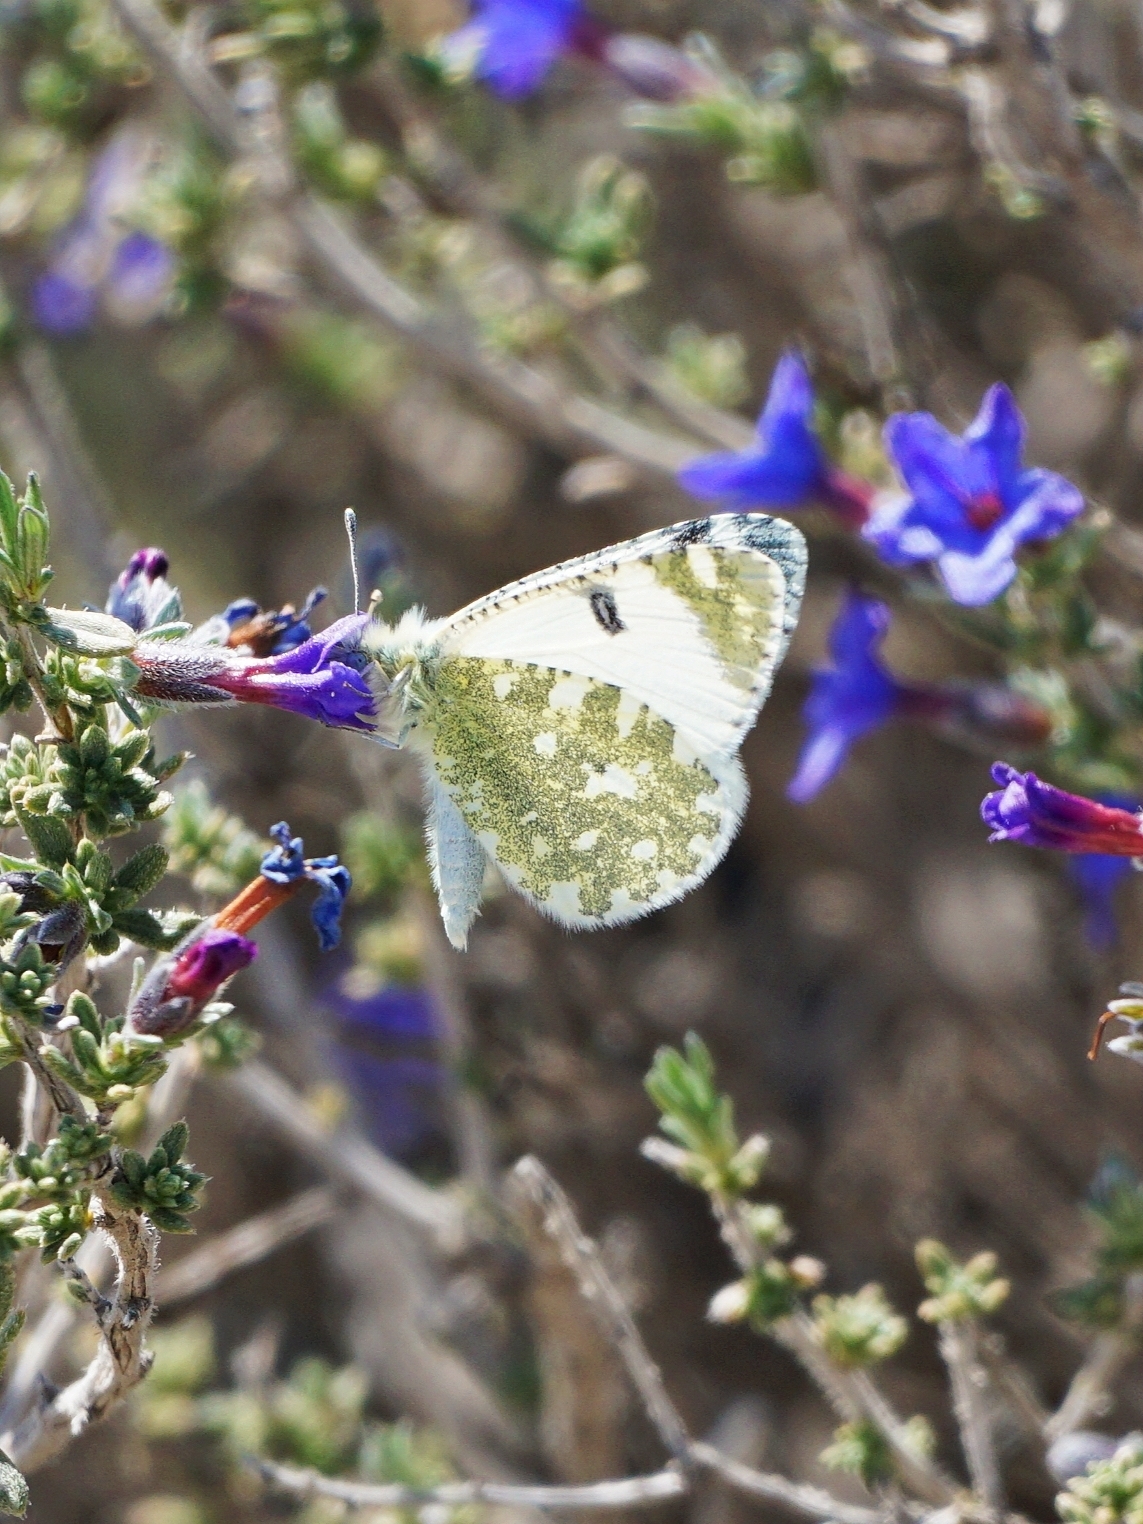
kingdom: Animalia
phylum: Arthropoda
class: Insecta
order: Lepidoptera
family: Pieridae
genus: Euchloe
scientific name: Euchloe tagis
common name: Portuguese dappled white
